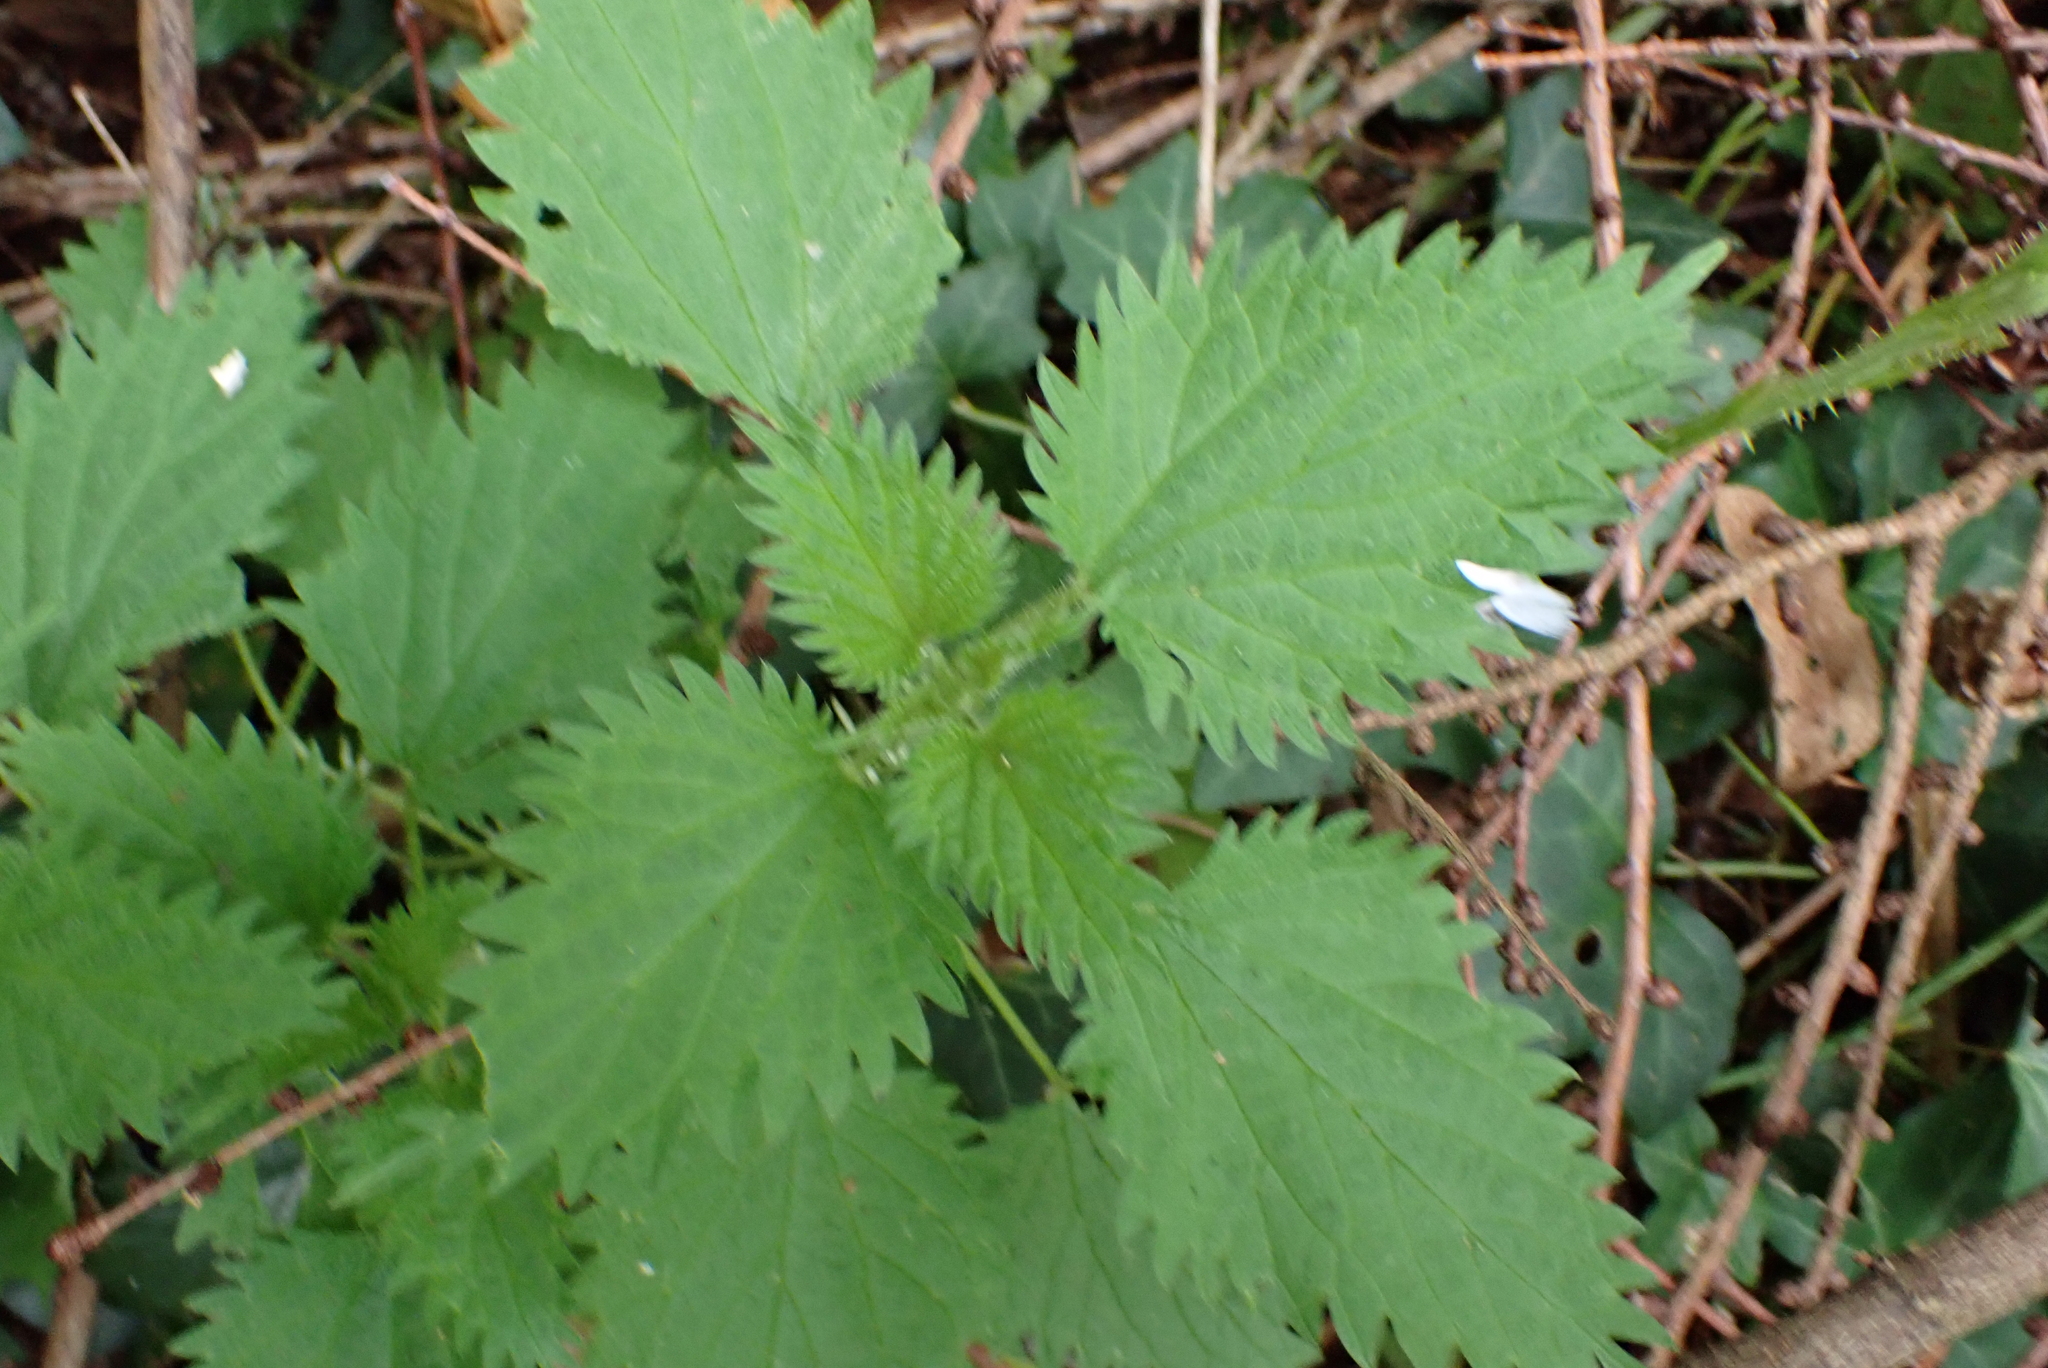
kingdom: Plantae
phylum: Tracheophyta
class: Magnoliopsida
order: Rosales
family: Urticaceae
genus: Urtica
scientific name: Urtica dioica
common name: Common nettle
